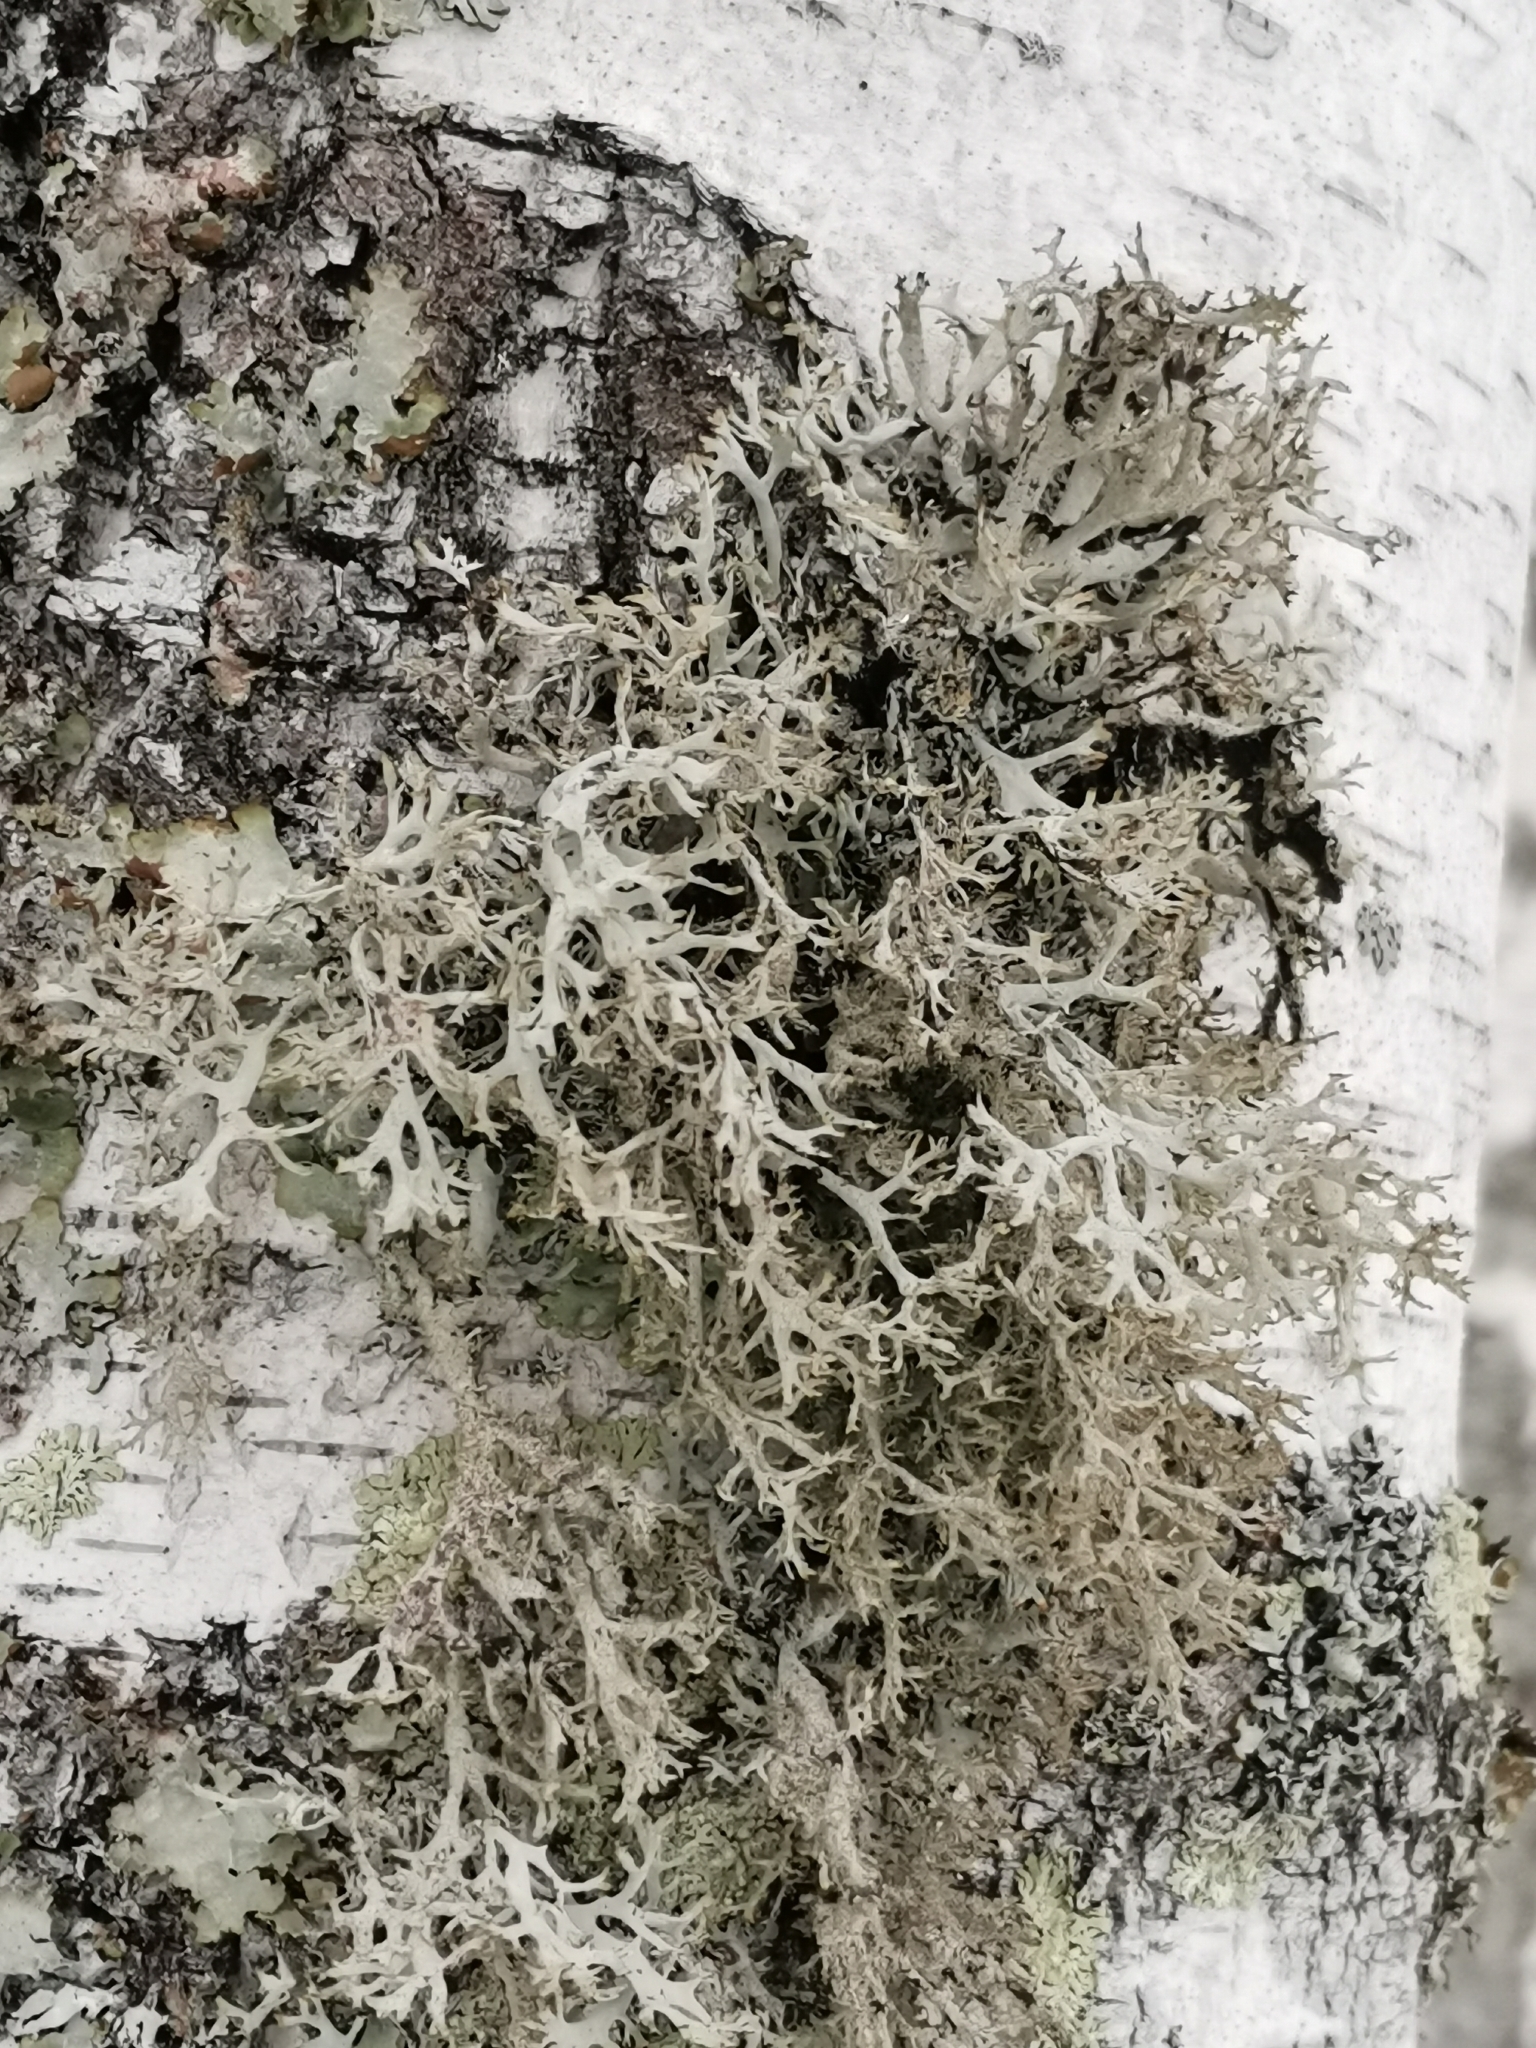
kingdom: Fungi
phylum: Ascomycota
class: Lecanoromycetes
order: Lecanorales
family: Parmeliaceae
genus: Pseudevernia
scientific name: Pseudevernia furfuracea
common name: Tree moss
